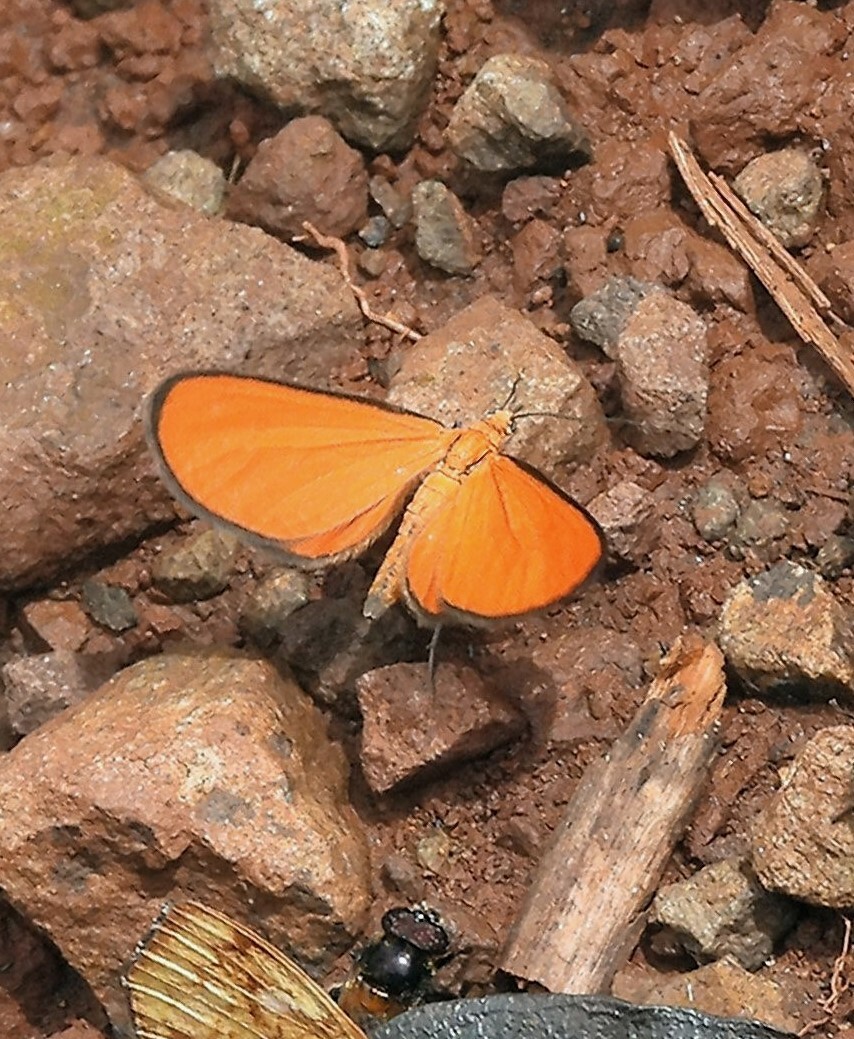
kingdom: Animalia
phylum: Arthropoda
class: Insecta
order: Lepidoptera
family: Geometridae
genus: Eudulophasia
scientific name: Eudulophasia invaria
